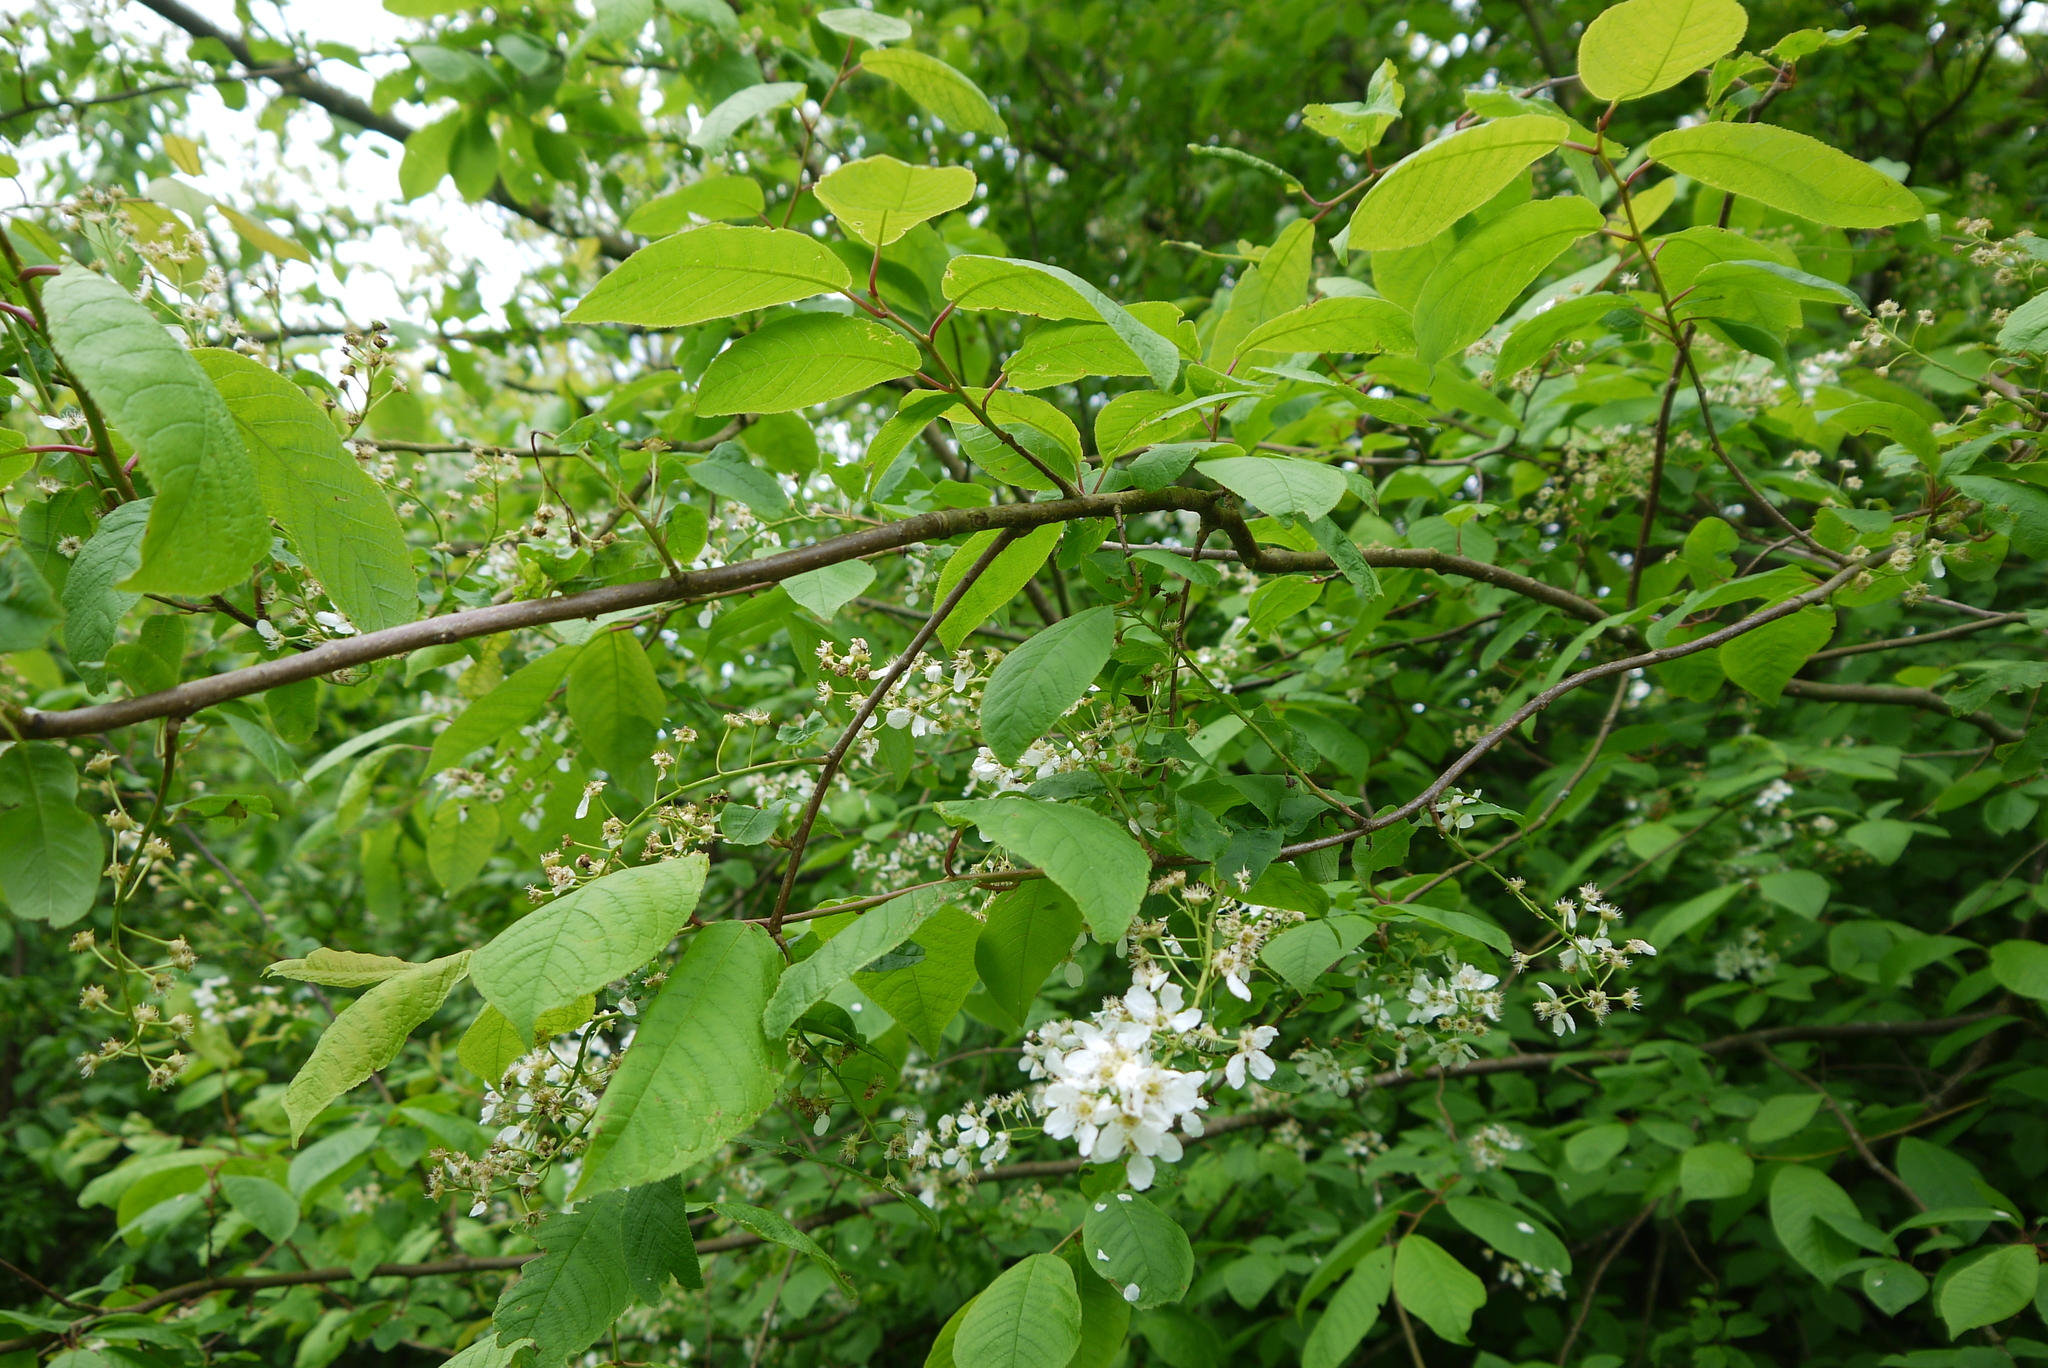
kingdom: Plantae
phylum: Tracheophyta
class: Magnoliopsida
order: Rosales
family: Rosaceae
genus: Prunus
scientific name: Prunus padus
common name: Bird cherry
